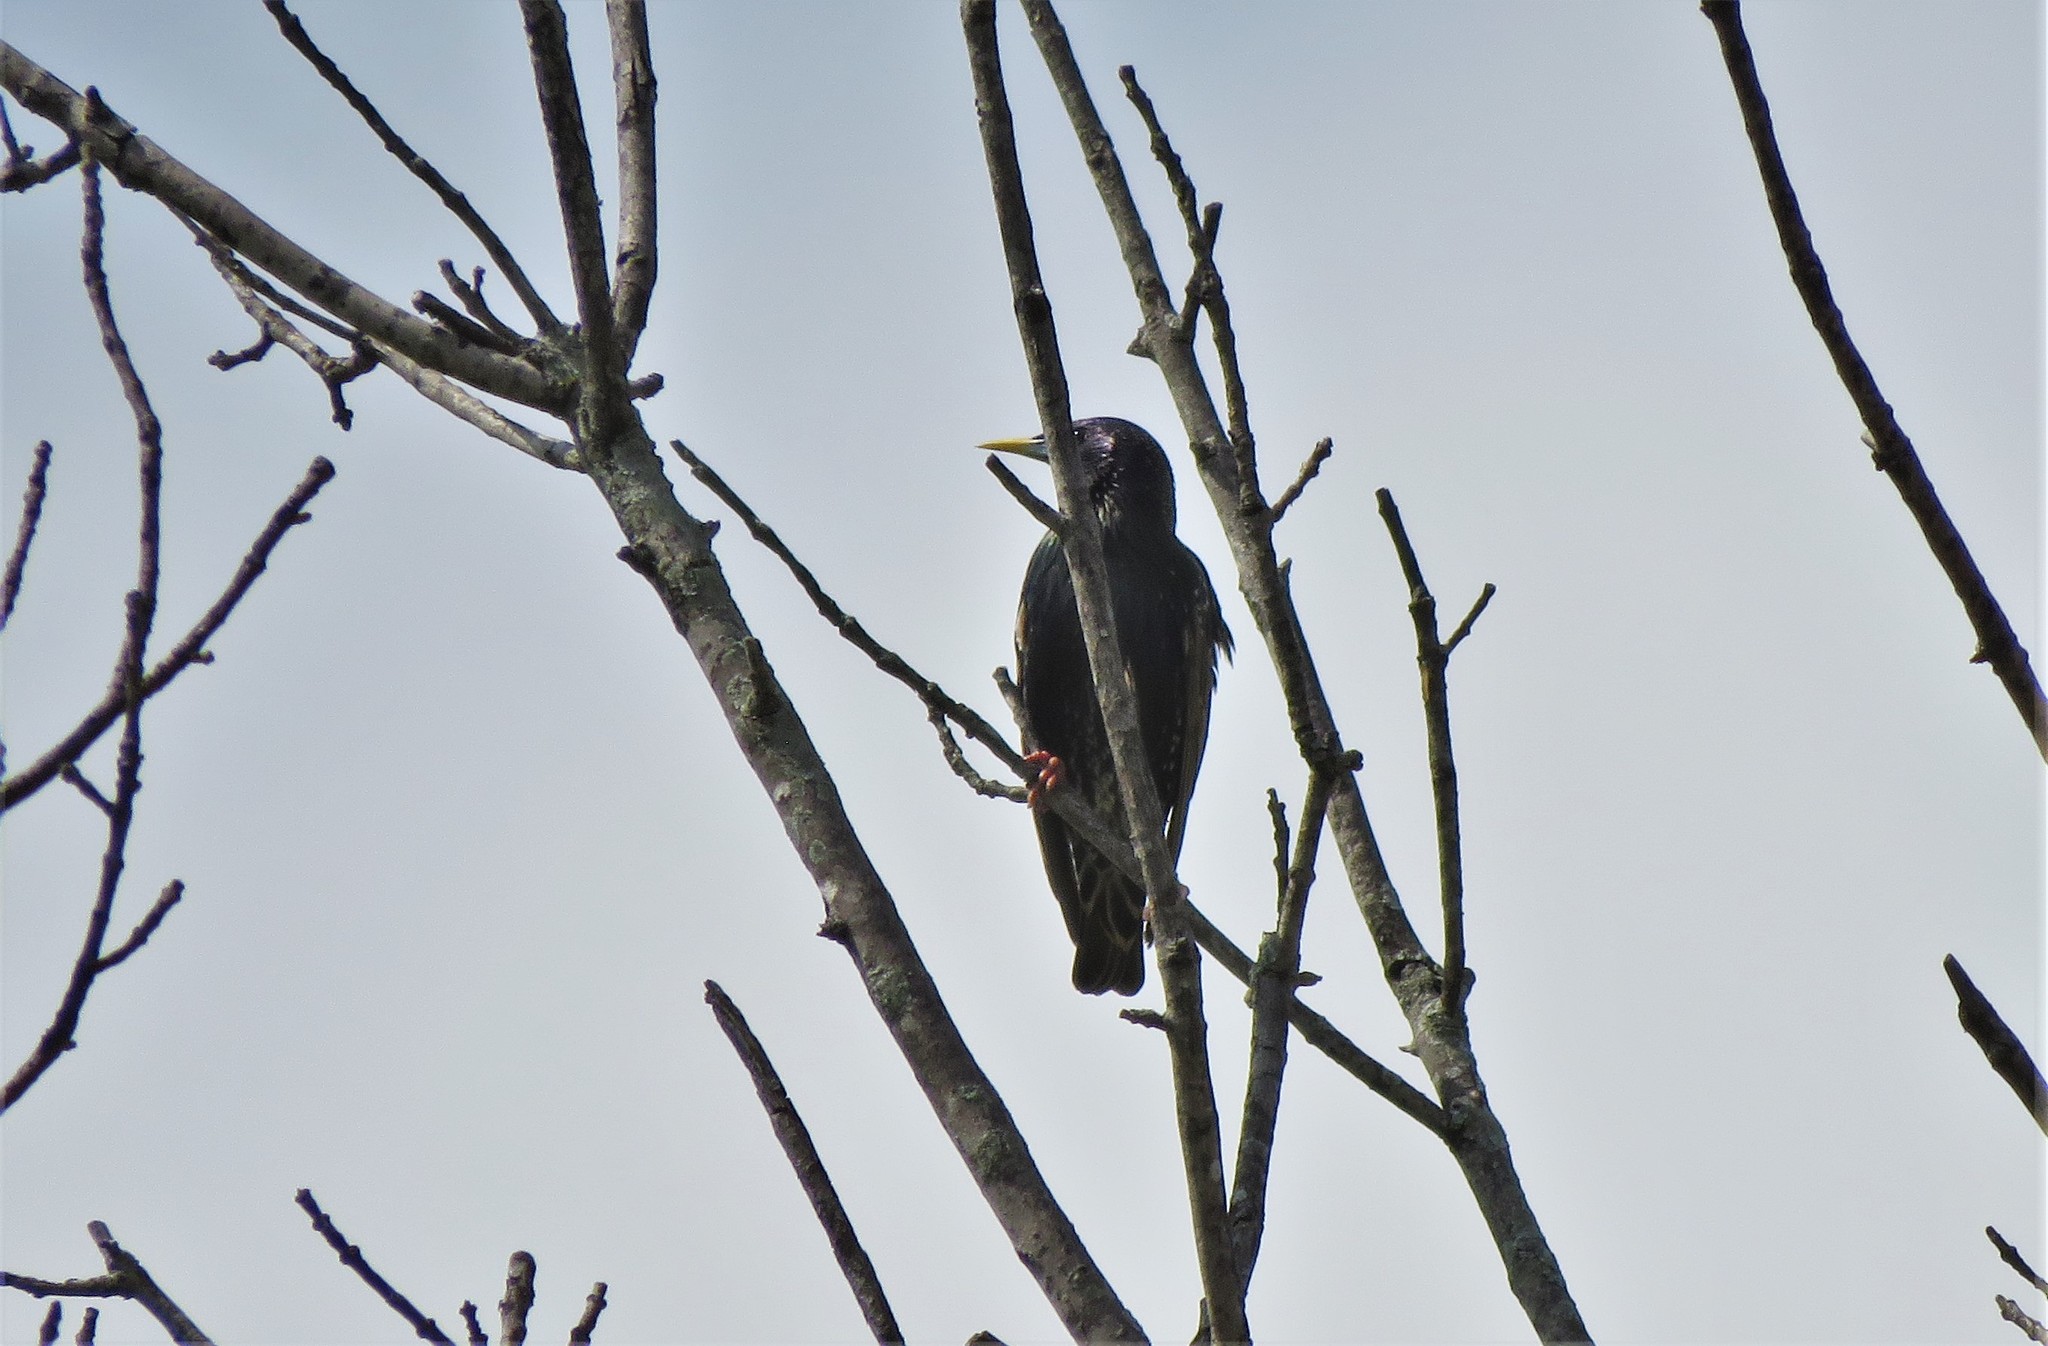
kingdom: Animalia
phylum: Chordata
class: Aves
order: Passeriformes
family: Sturnidae
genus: Sturnus
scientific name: Sturnus vulgaris
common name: Common starling
